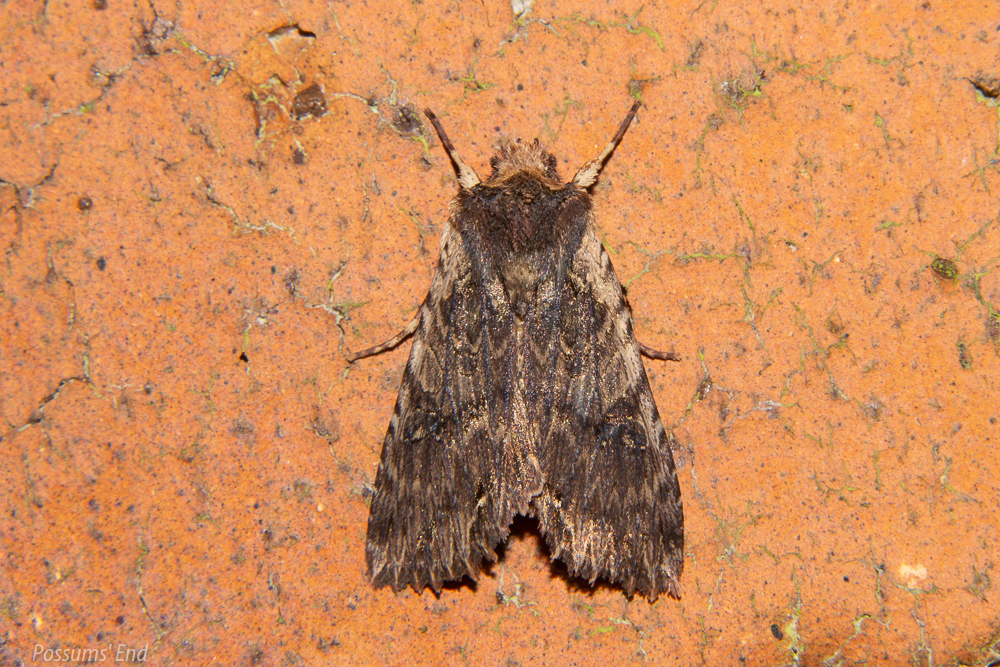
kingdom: Animalia
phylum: Arthropoda
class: Insecta
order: Lepidoptera
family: Noctuidae
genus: Meterana
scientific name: Meterana alcyone
